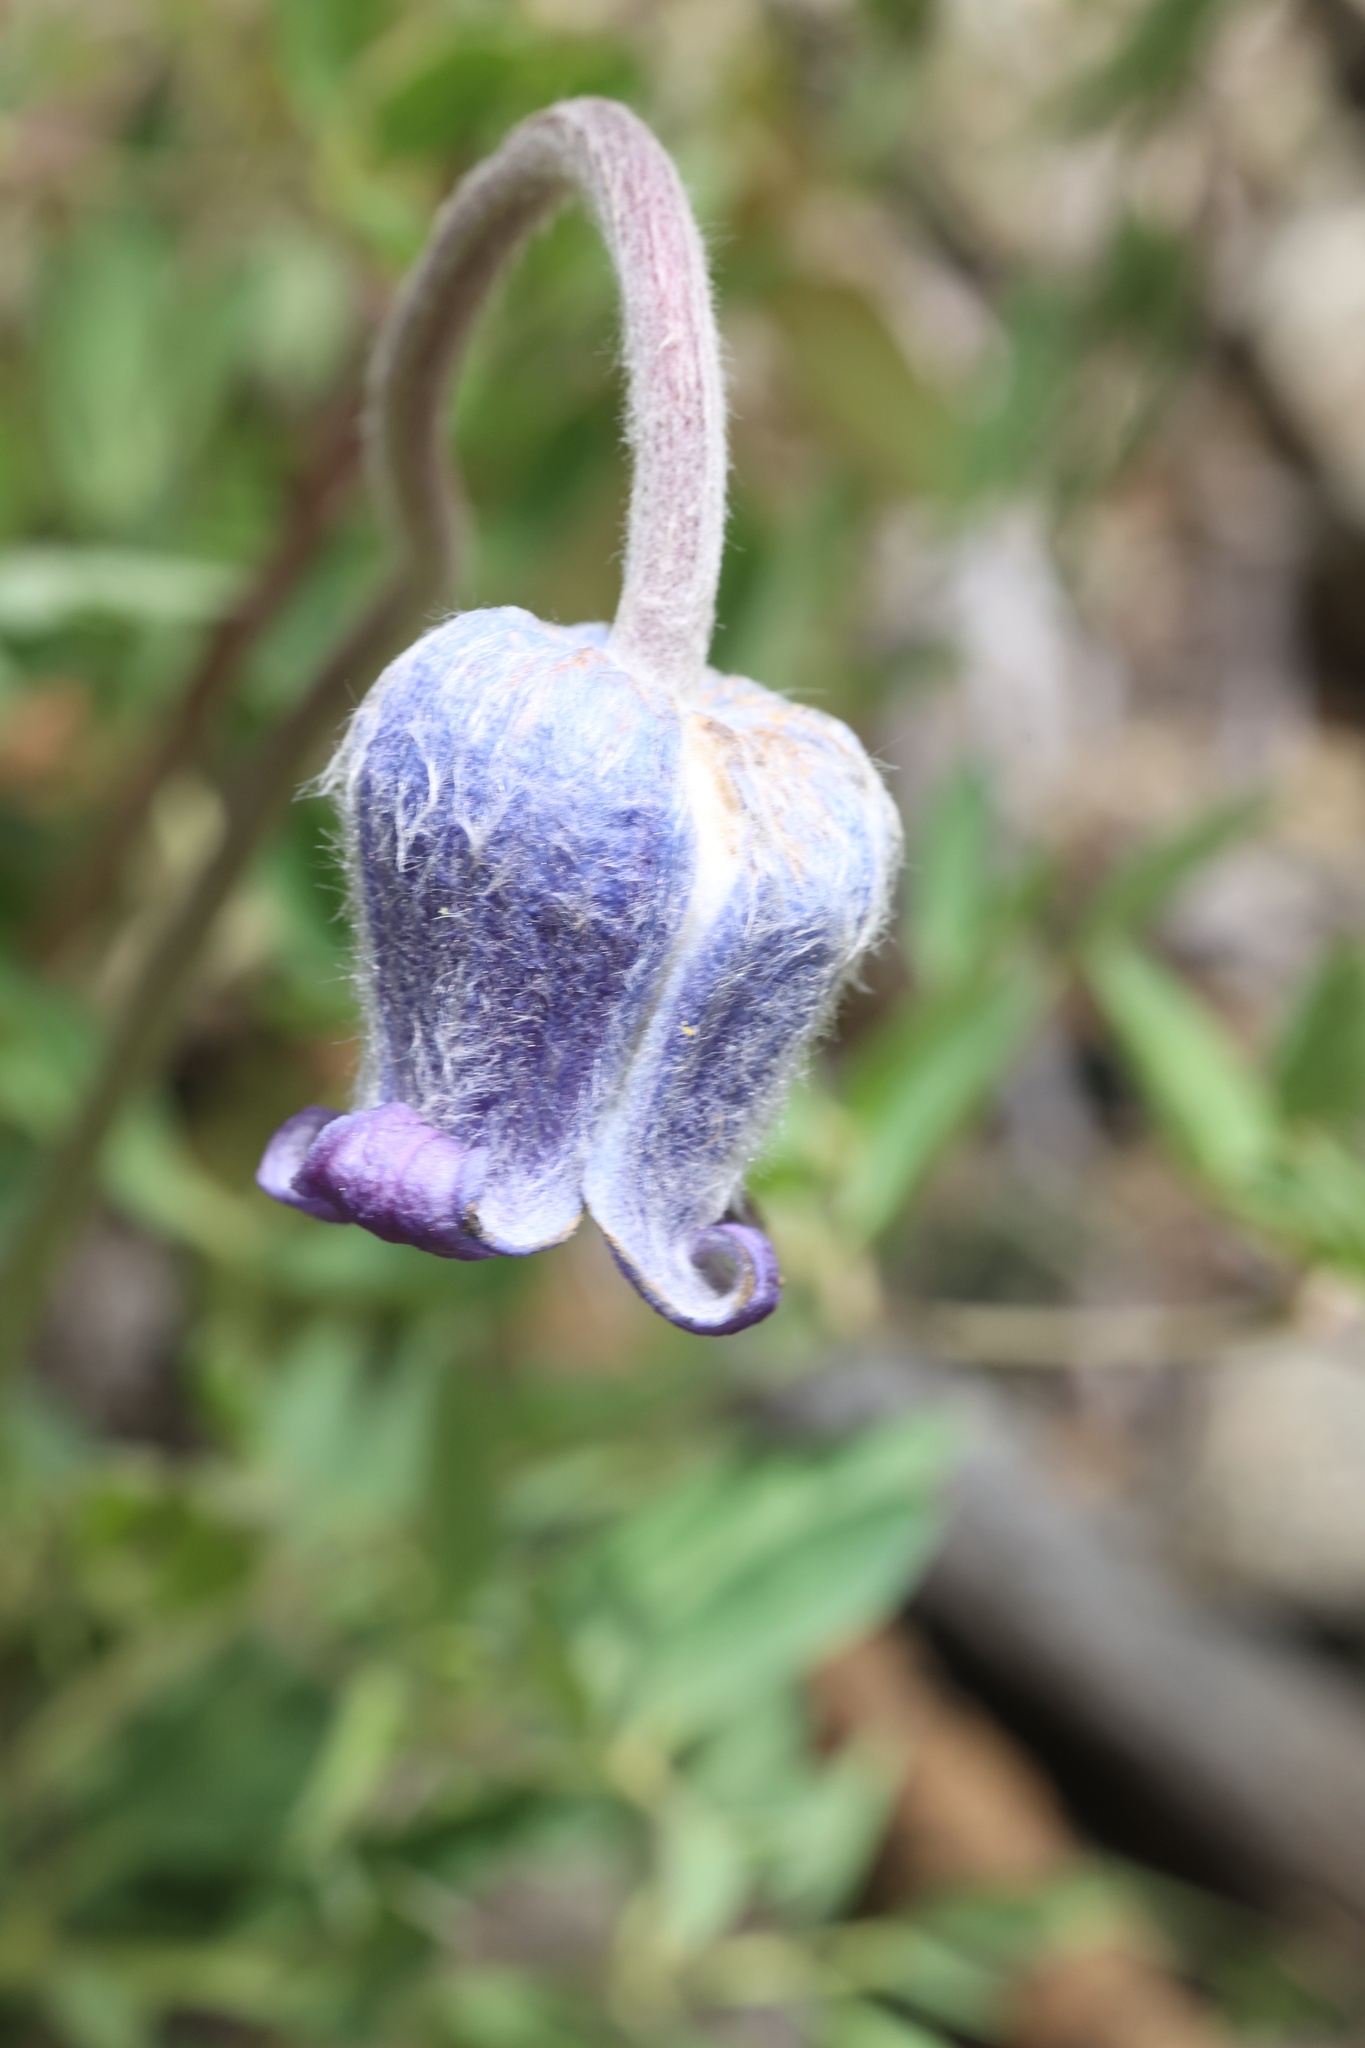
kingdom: Plantae
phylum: Tracheophyta
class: Magnoliopsida
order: Ranunculales
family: Ranunculaceae
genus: Clematis
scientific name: Clematis hirsutissima
